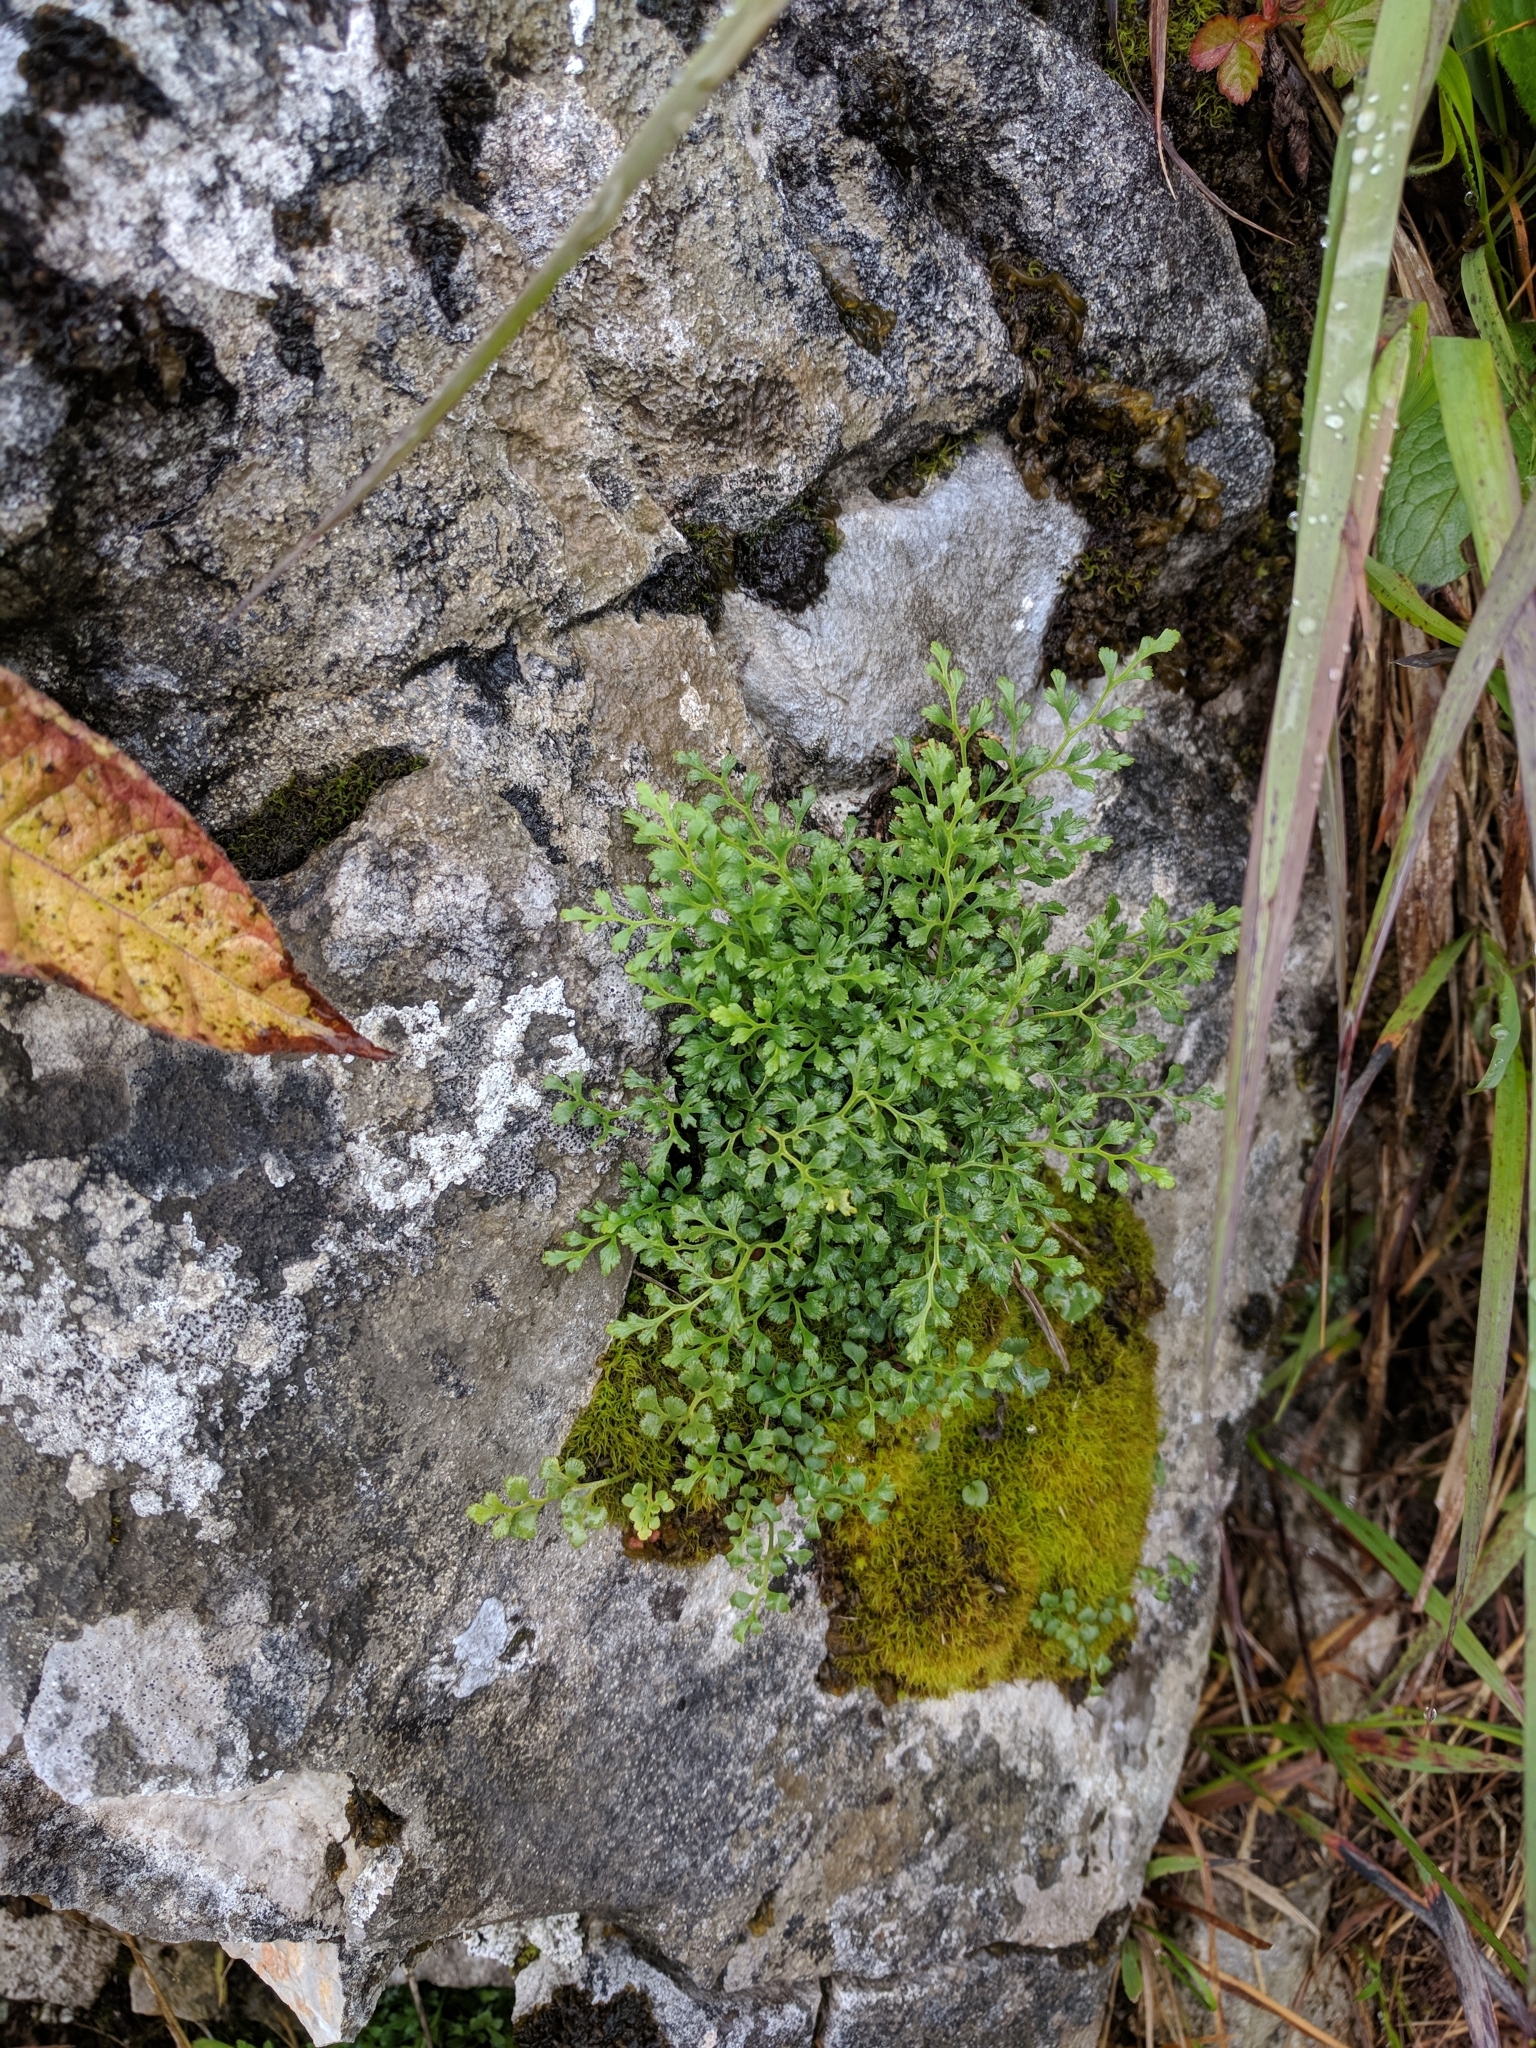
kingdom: Plantae
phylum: Tracheophyta
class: Polypodiopsida
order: Polypodiales
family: Aspleniaceae
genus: Asplenium
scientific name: Asplenium ruta-muraria
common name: Wall-rue
